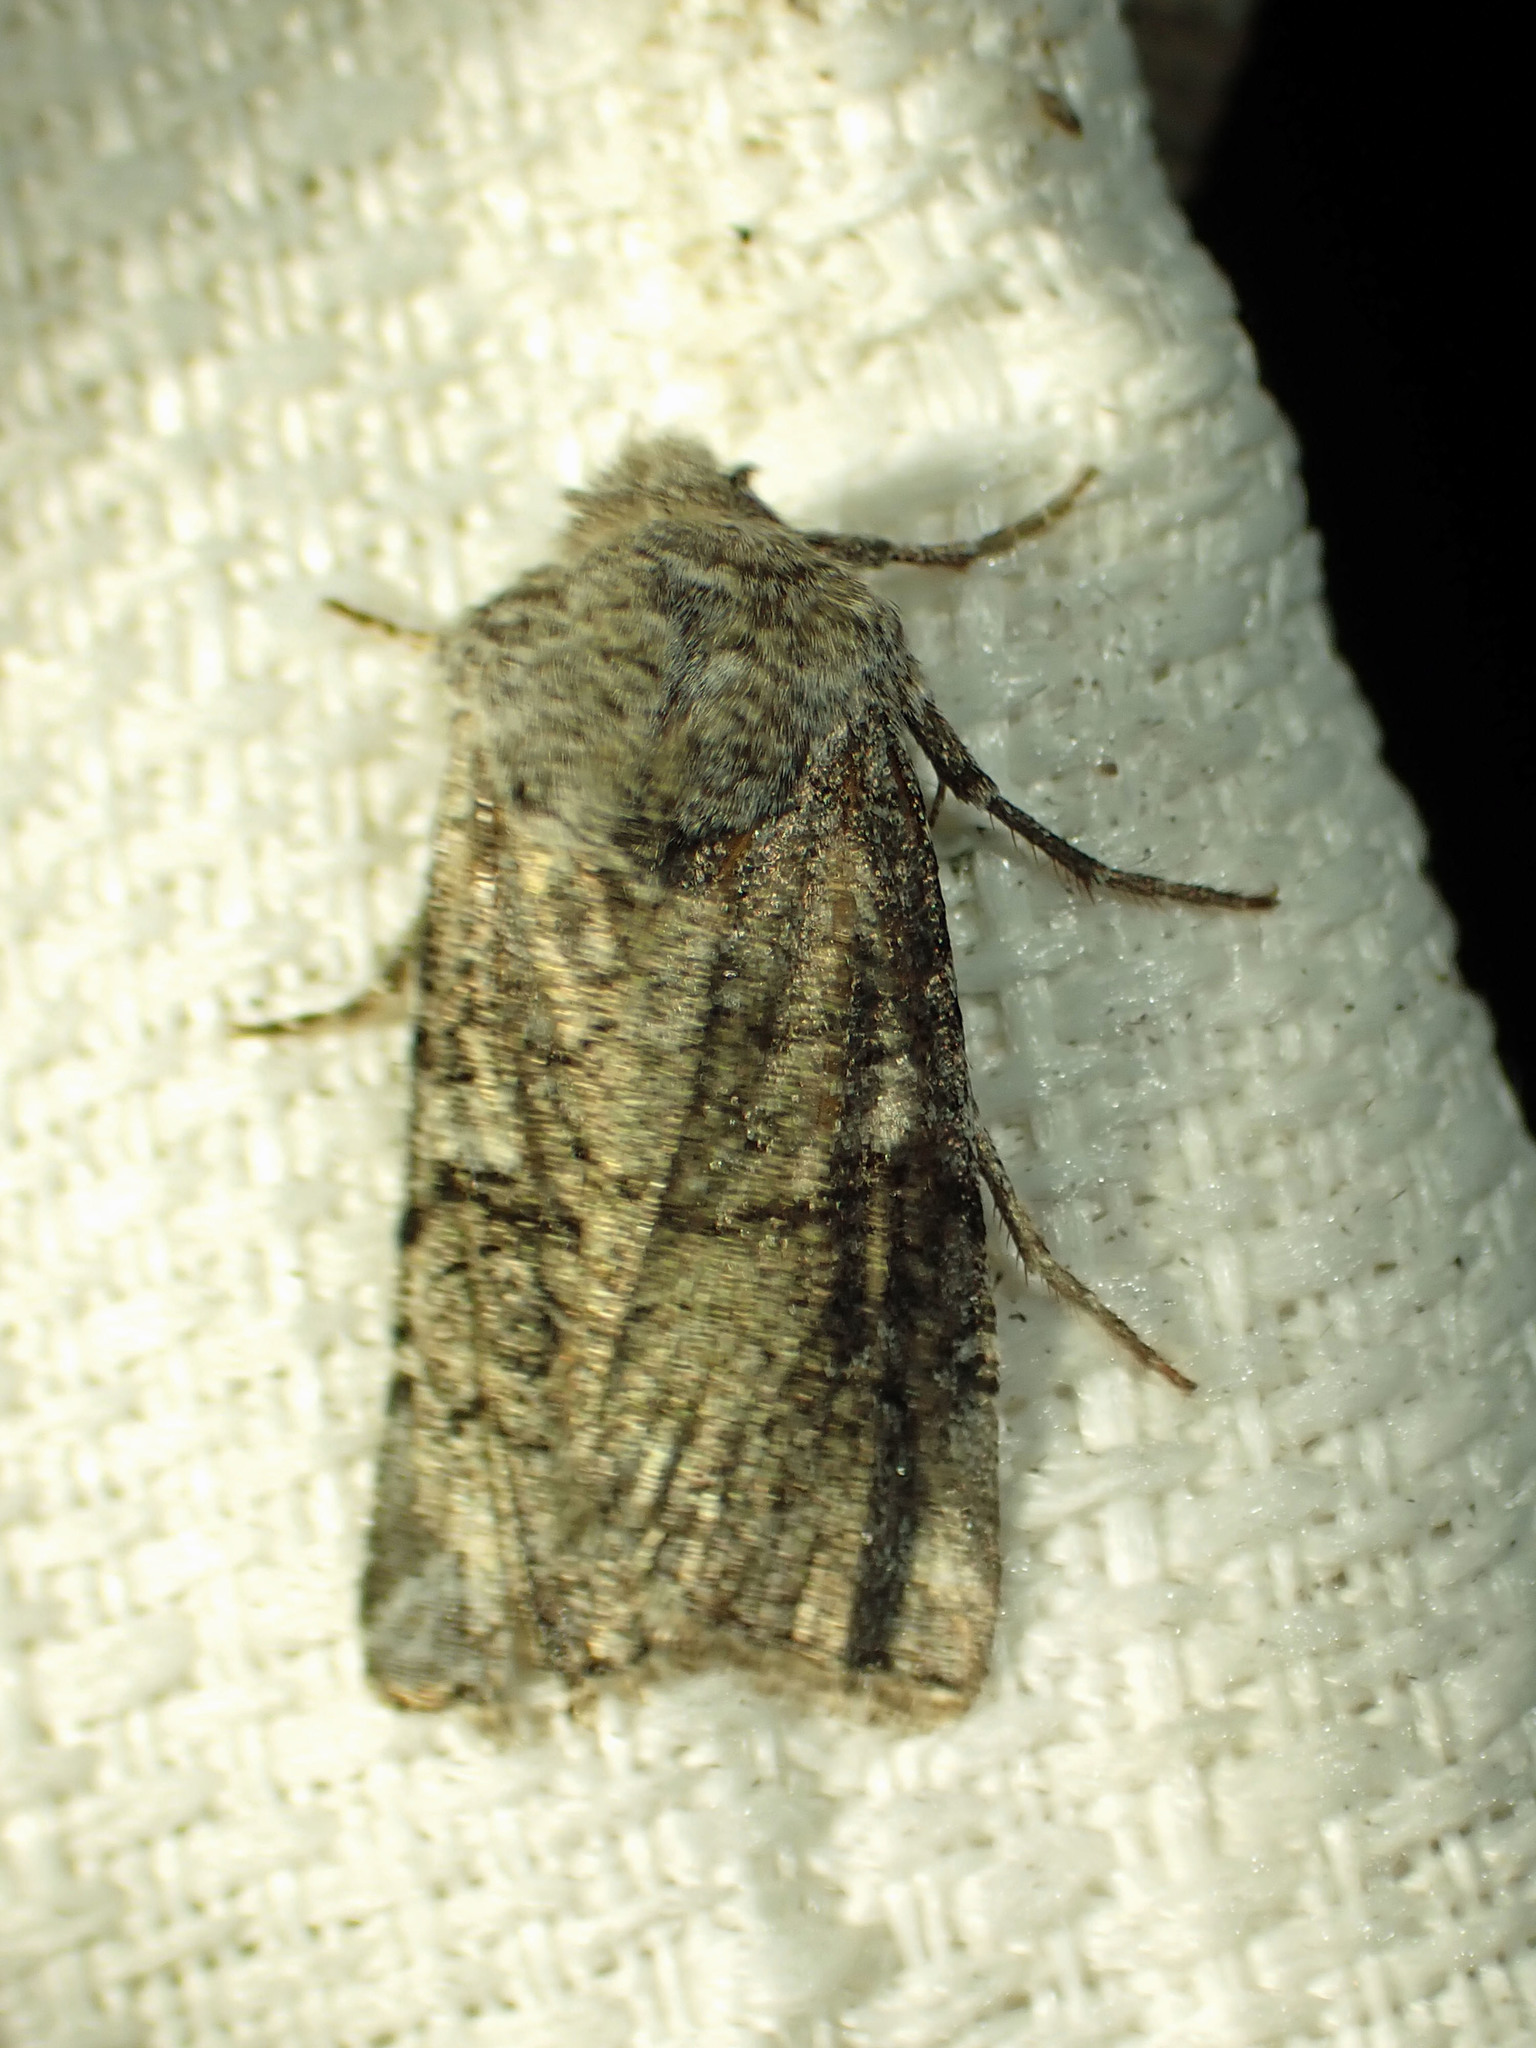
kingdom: Animalia
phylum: Arthropoda
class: Insecta
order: Lepidoptera
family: Noctuidae
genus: Litholomia
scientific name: Litholomia napaea
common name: False pinion moth
